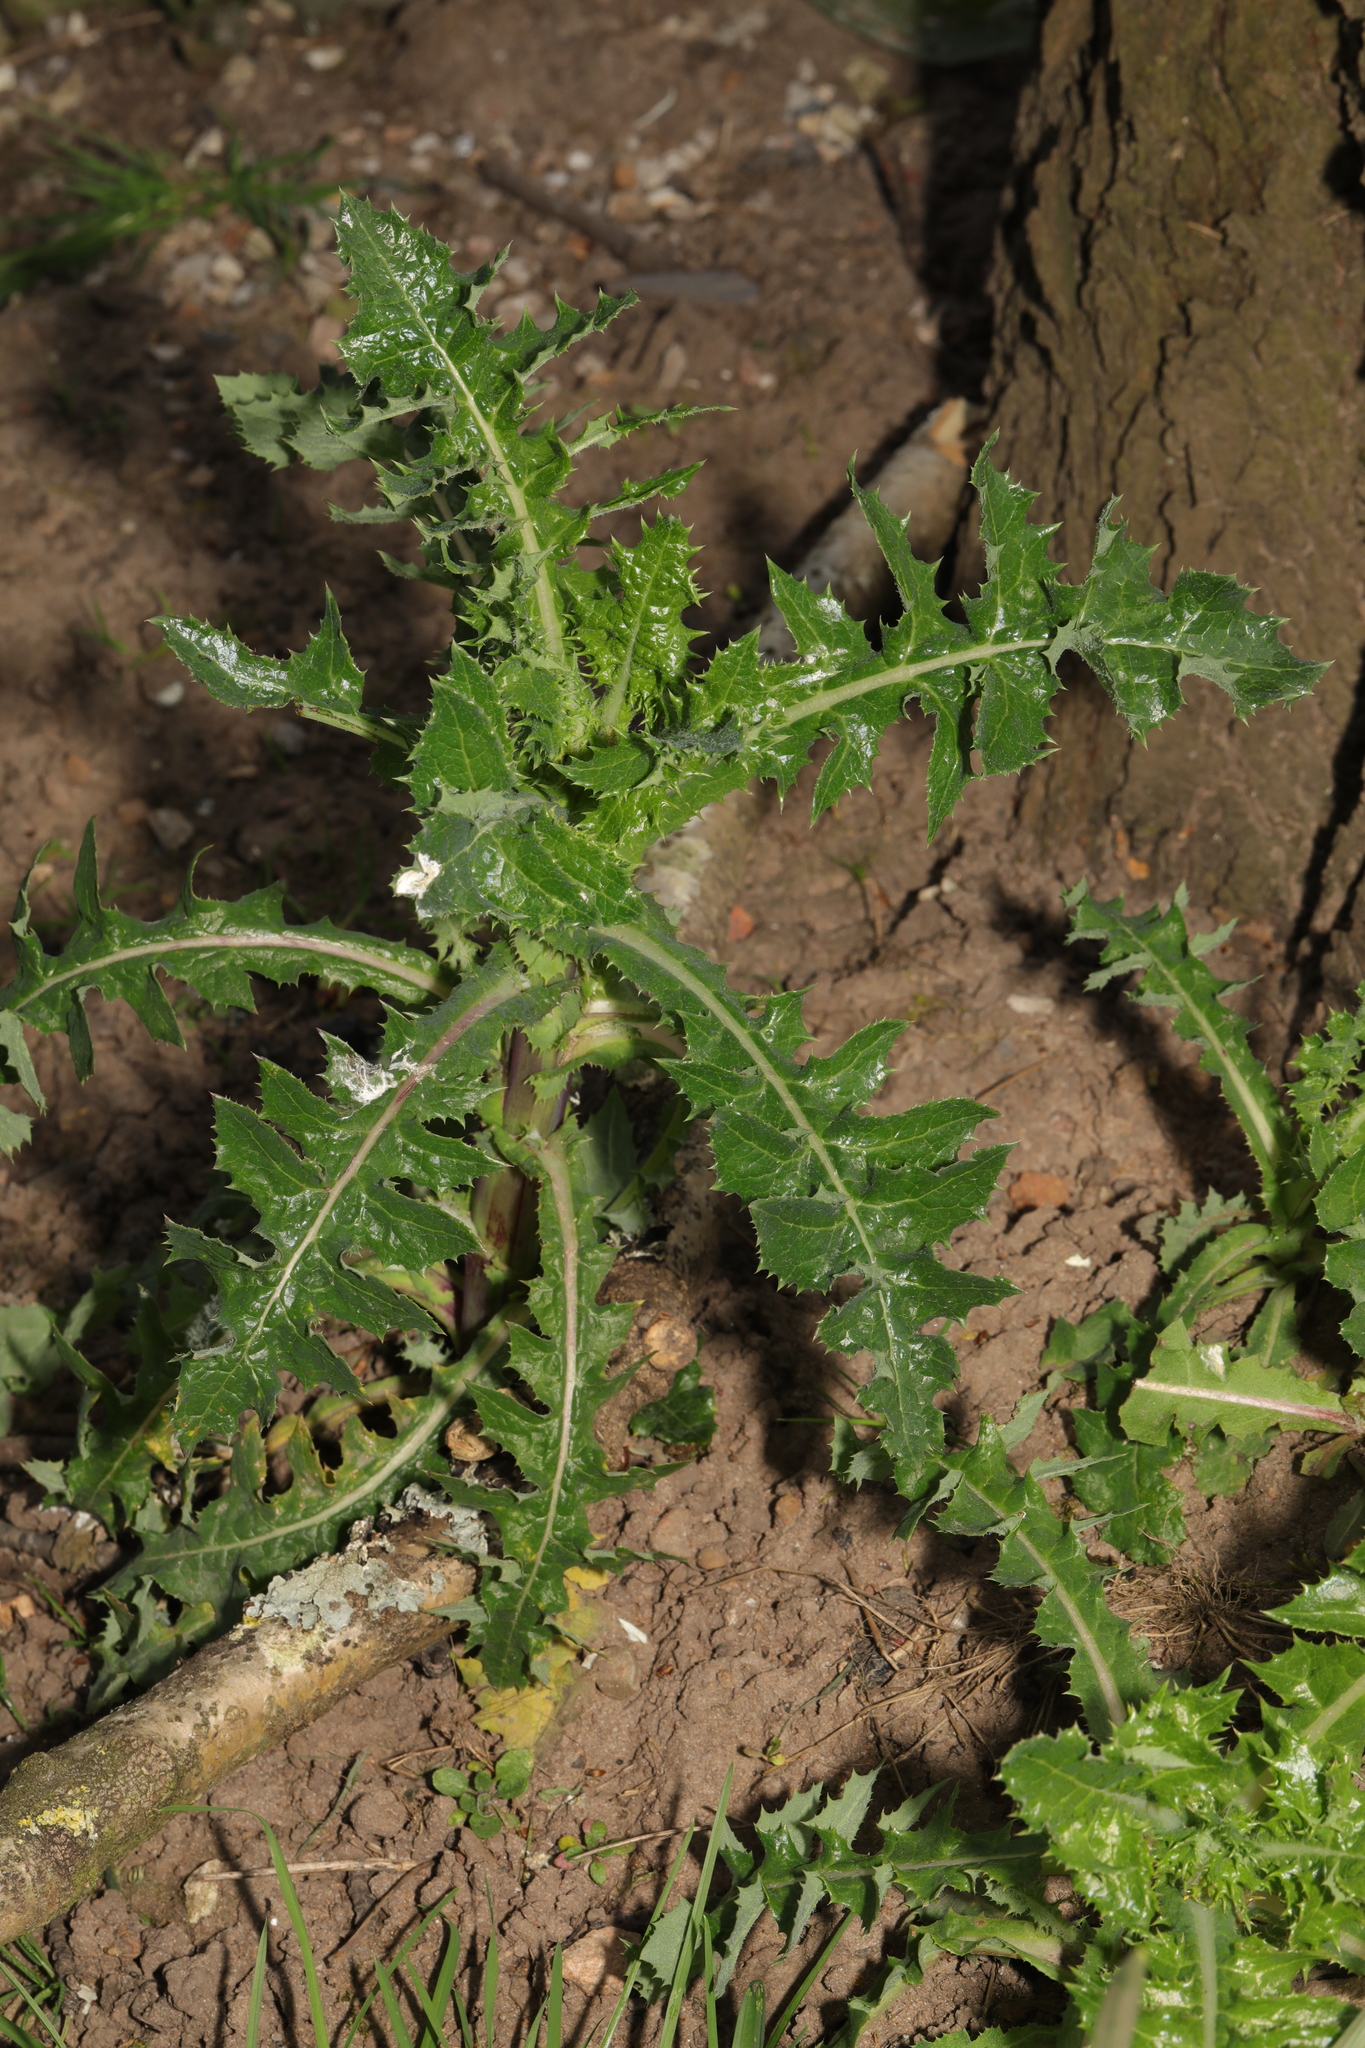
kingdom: Plantae
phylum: Tracheophyta
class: Magnoliopsida
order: Asterales
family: Asteraceae
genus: Sonchus
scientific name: Sonchus asper
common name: Prickly sow-thistle
